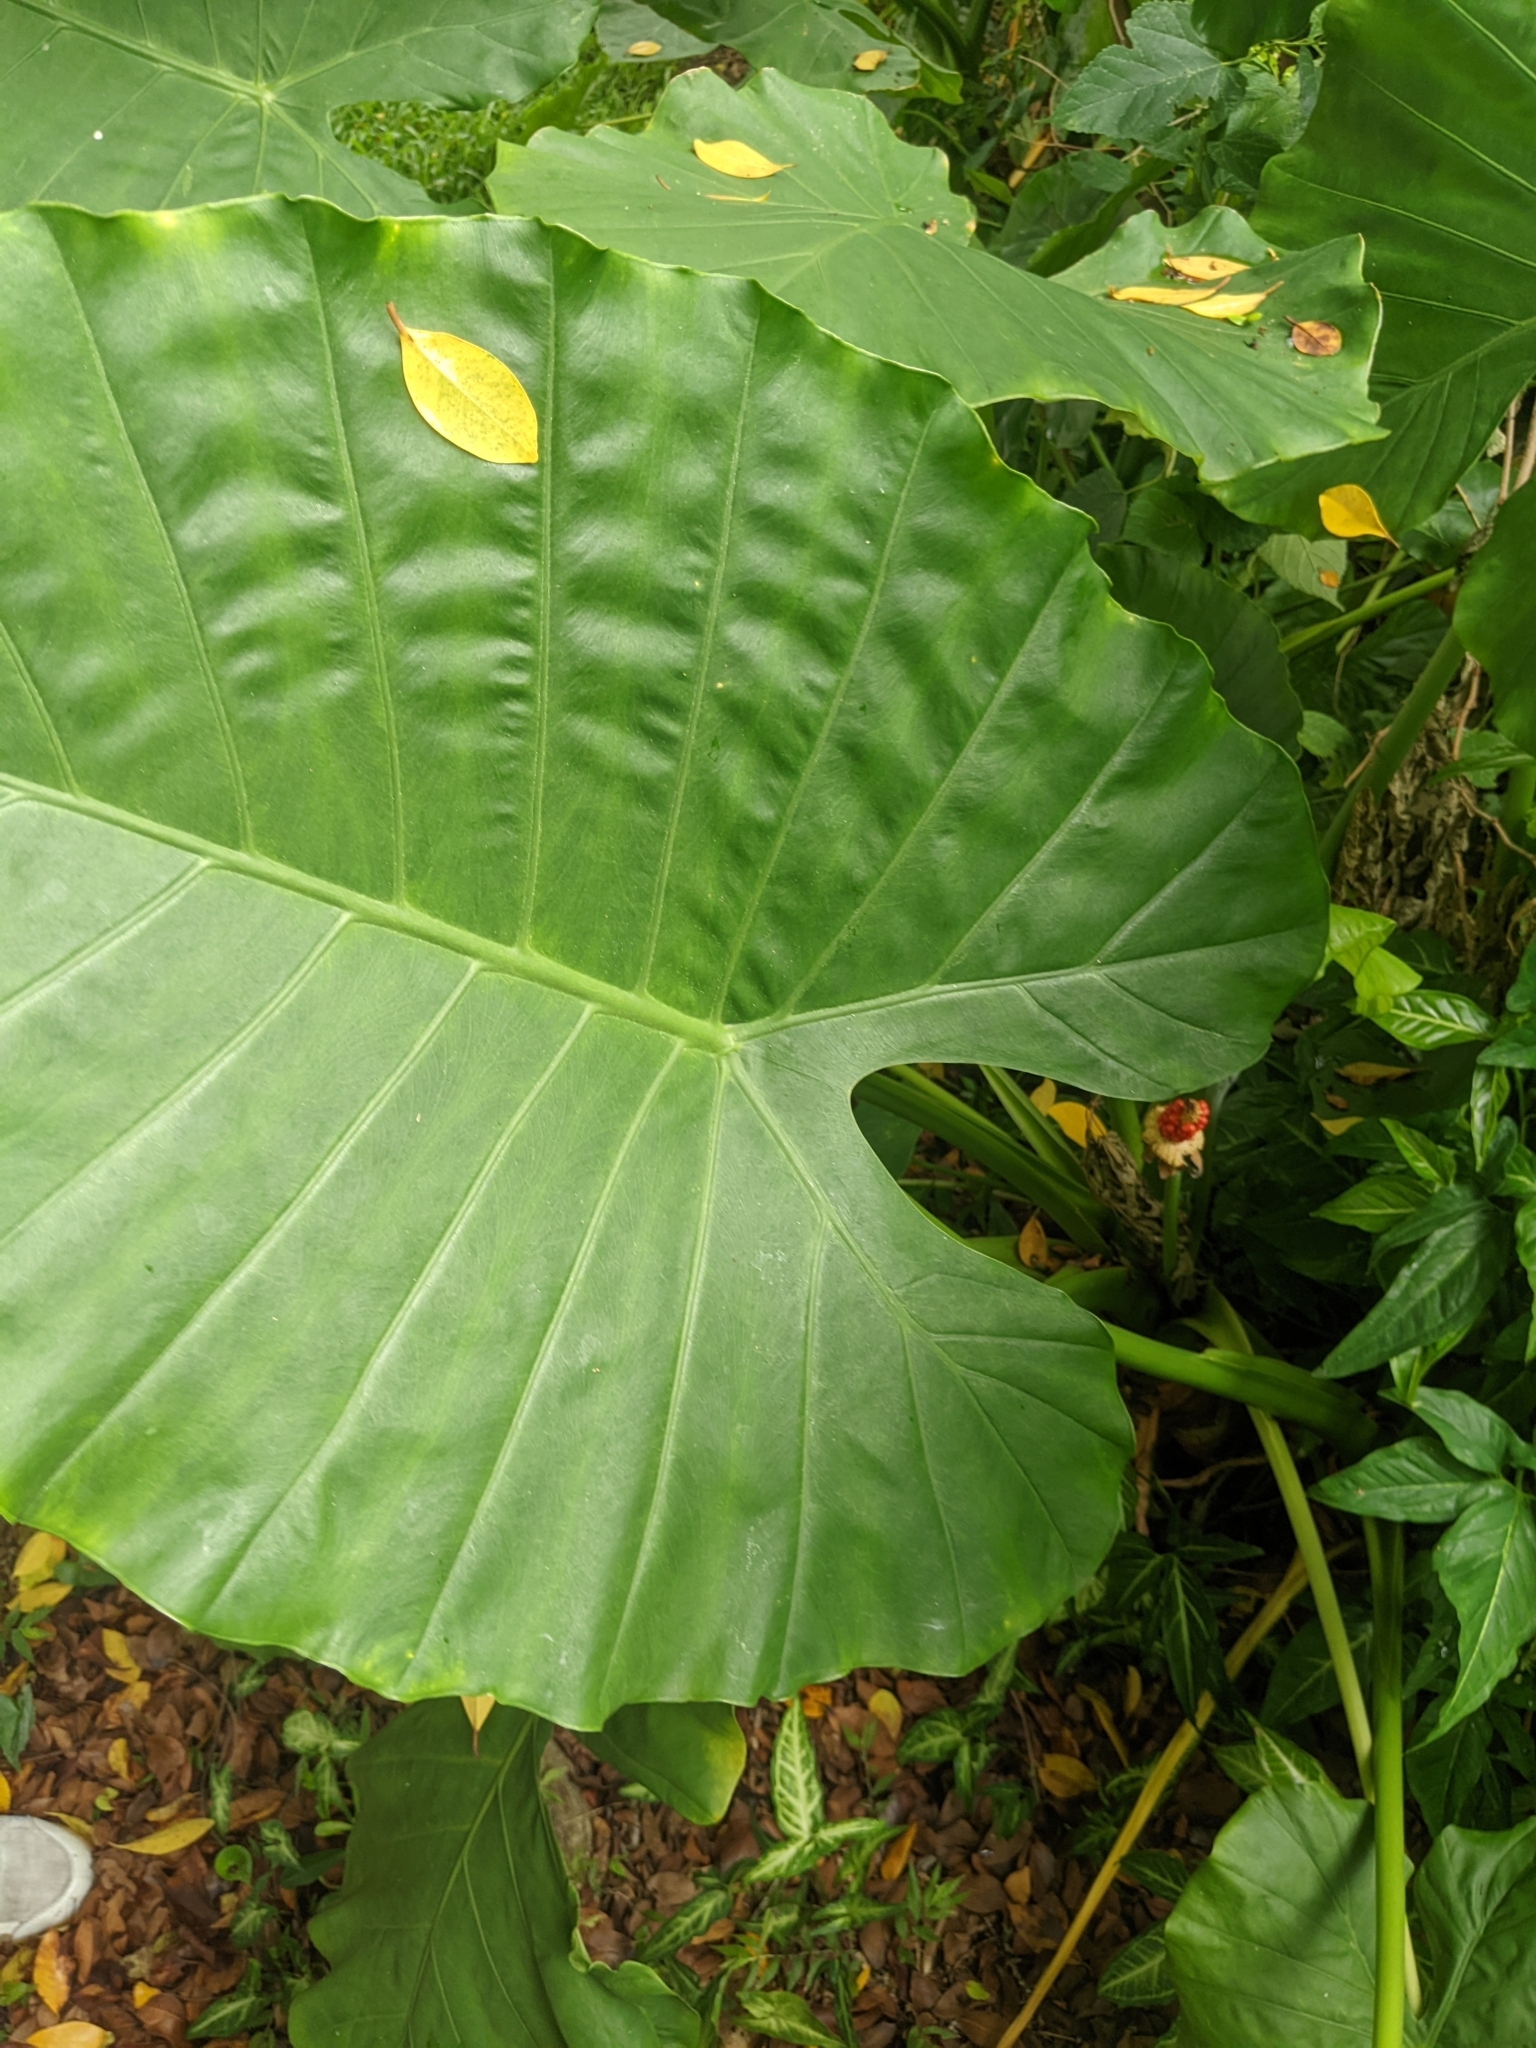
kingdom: Plantae
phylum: Tracheophyta
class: Liliopsida
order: Alismatales
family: Araceae
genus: Alocasia
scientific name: Alocasia odora
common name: Asian taro
